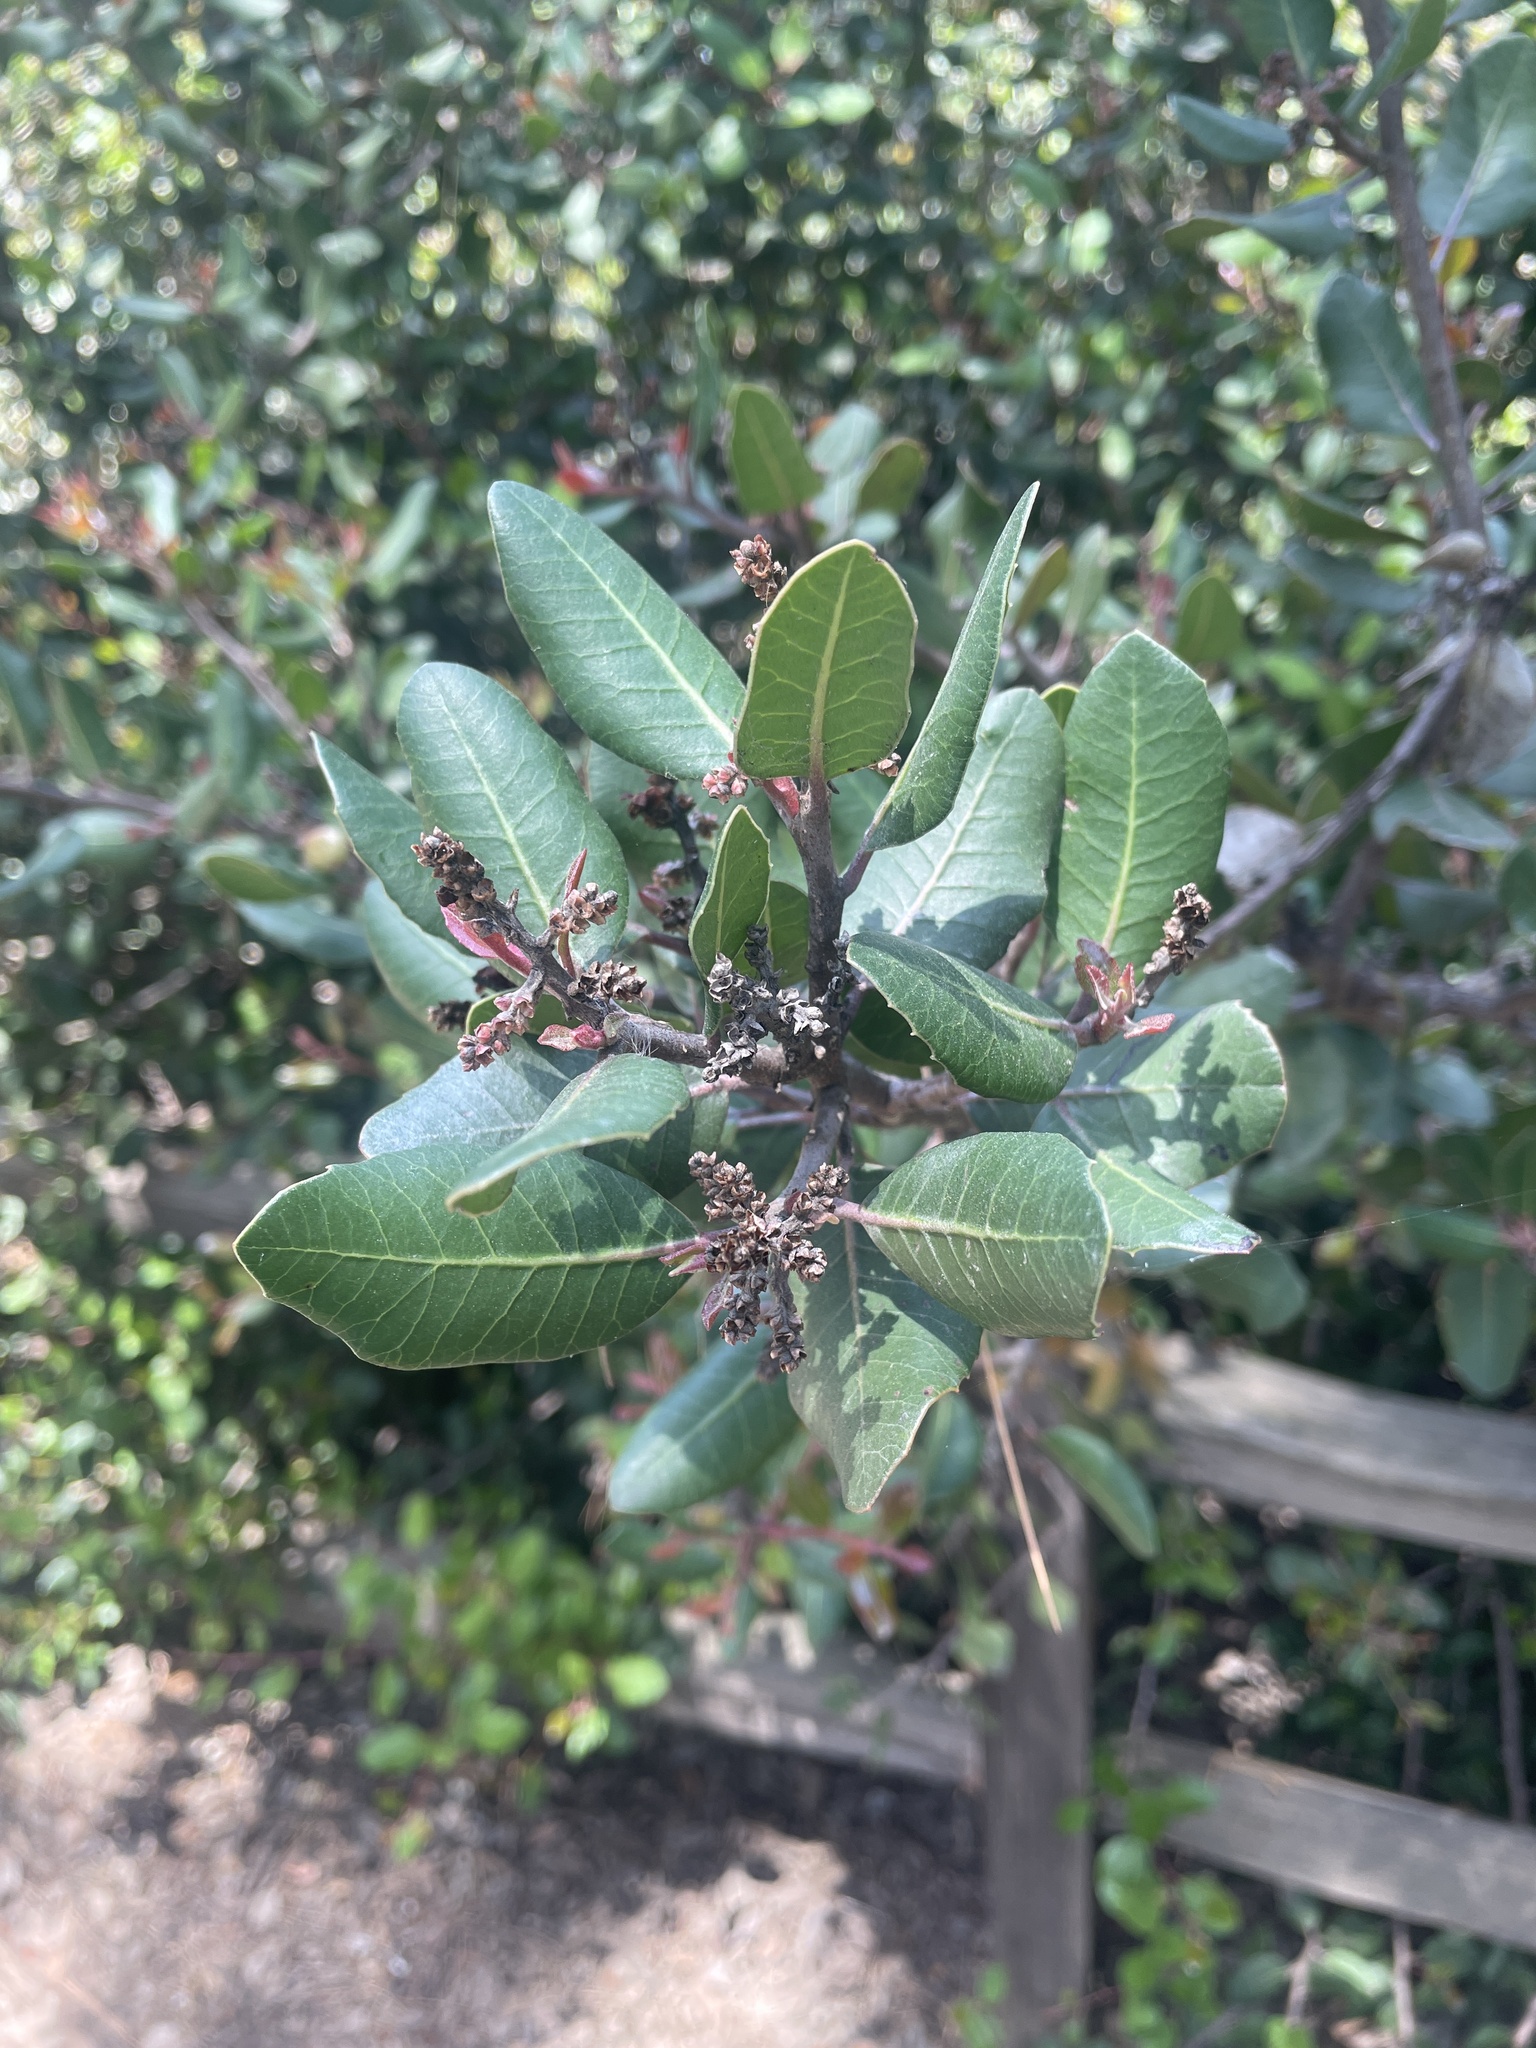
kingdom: Plantae
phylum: Tracheophyta
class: Magnoliopsida
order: Sapindales
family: Anacardiaceae
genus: Rhus
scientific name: Rhus integrifolia
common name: Lemonade sumac
